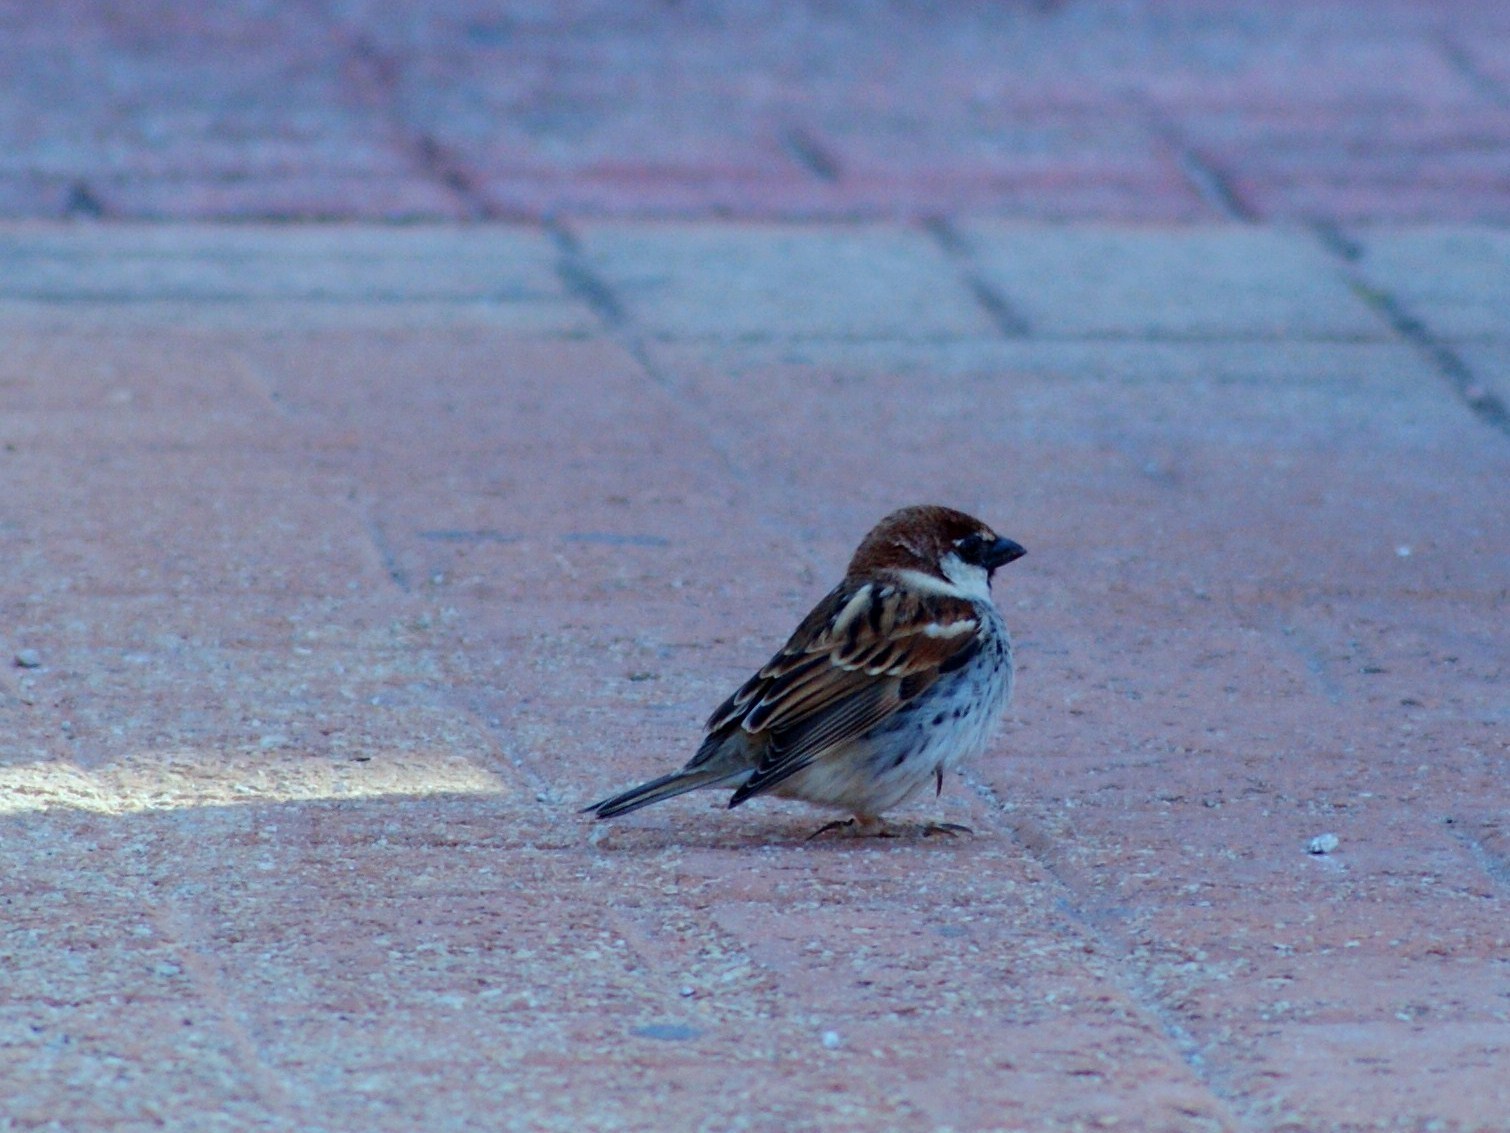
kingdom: Animalia
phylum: Chordata
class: Aves
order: Passeriformes
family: Passeridae
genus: Passer
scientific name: Passer hispaniolensis
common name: Spanish sparrow
